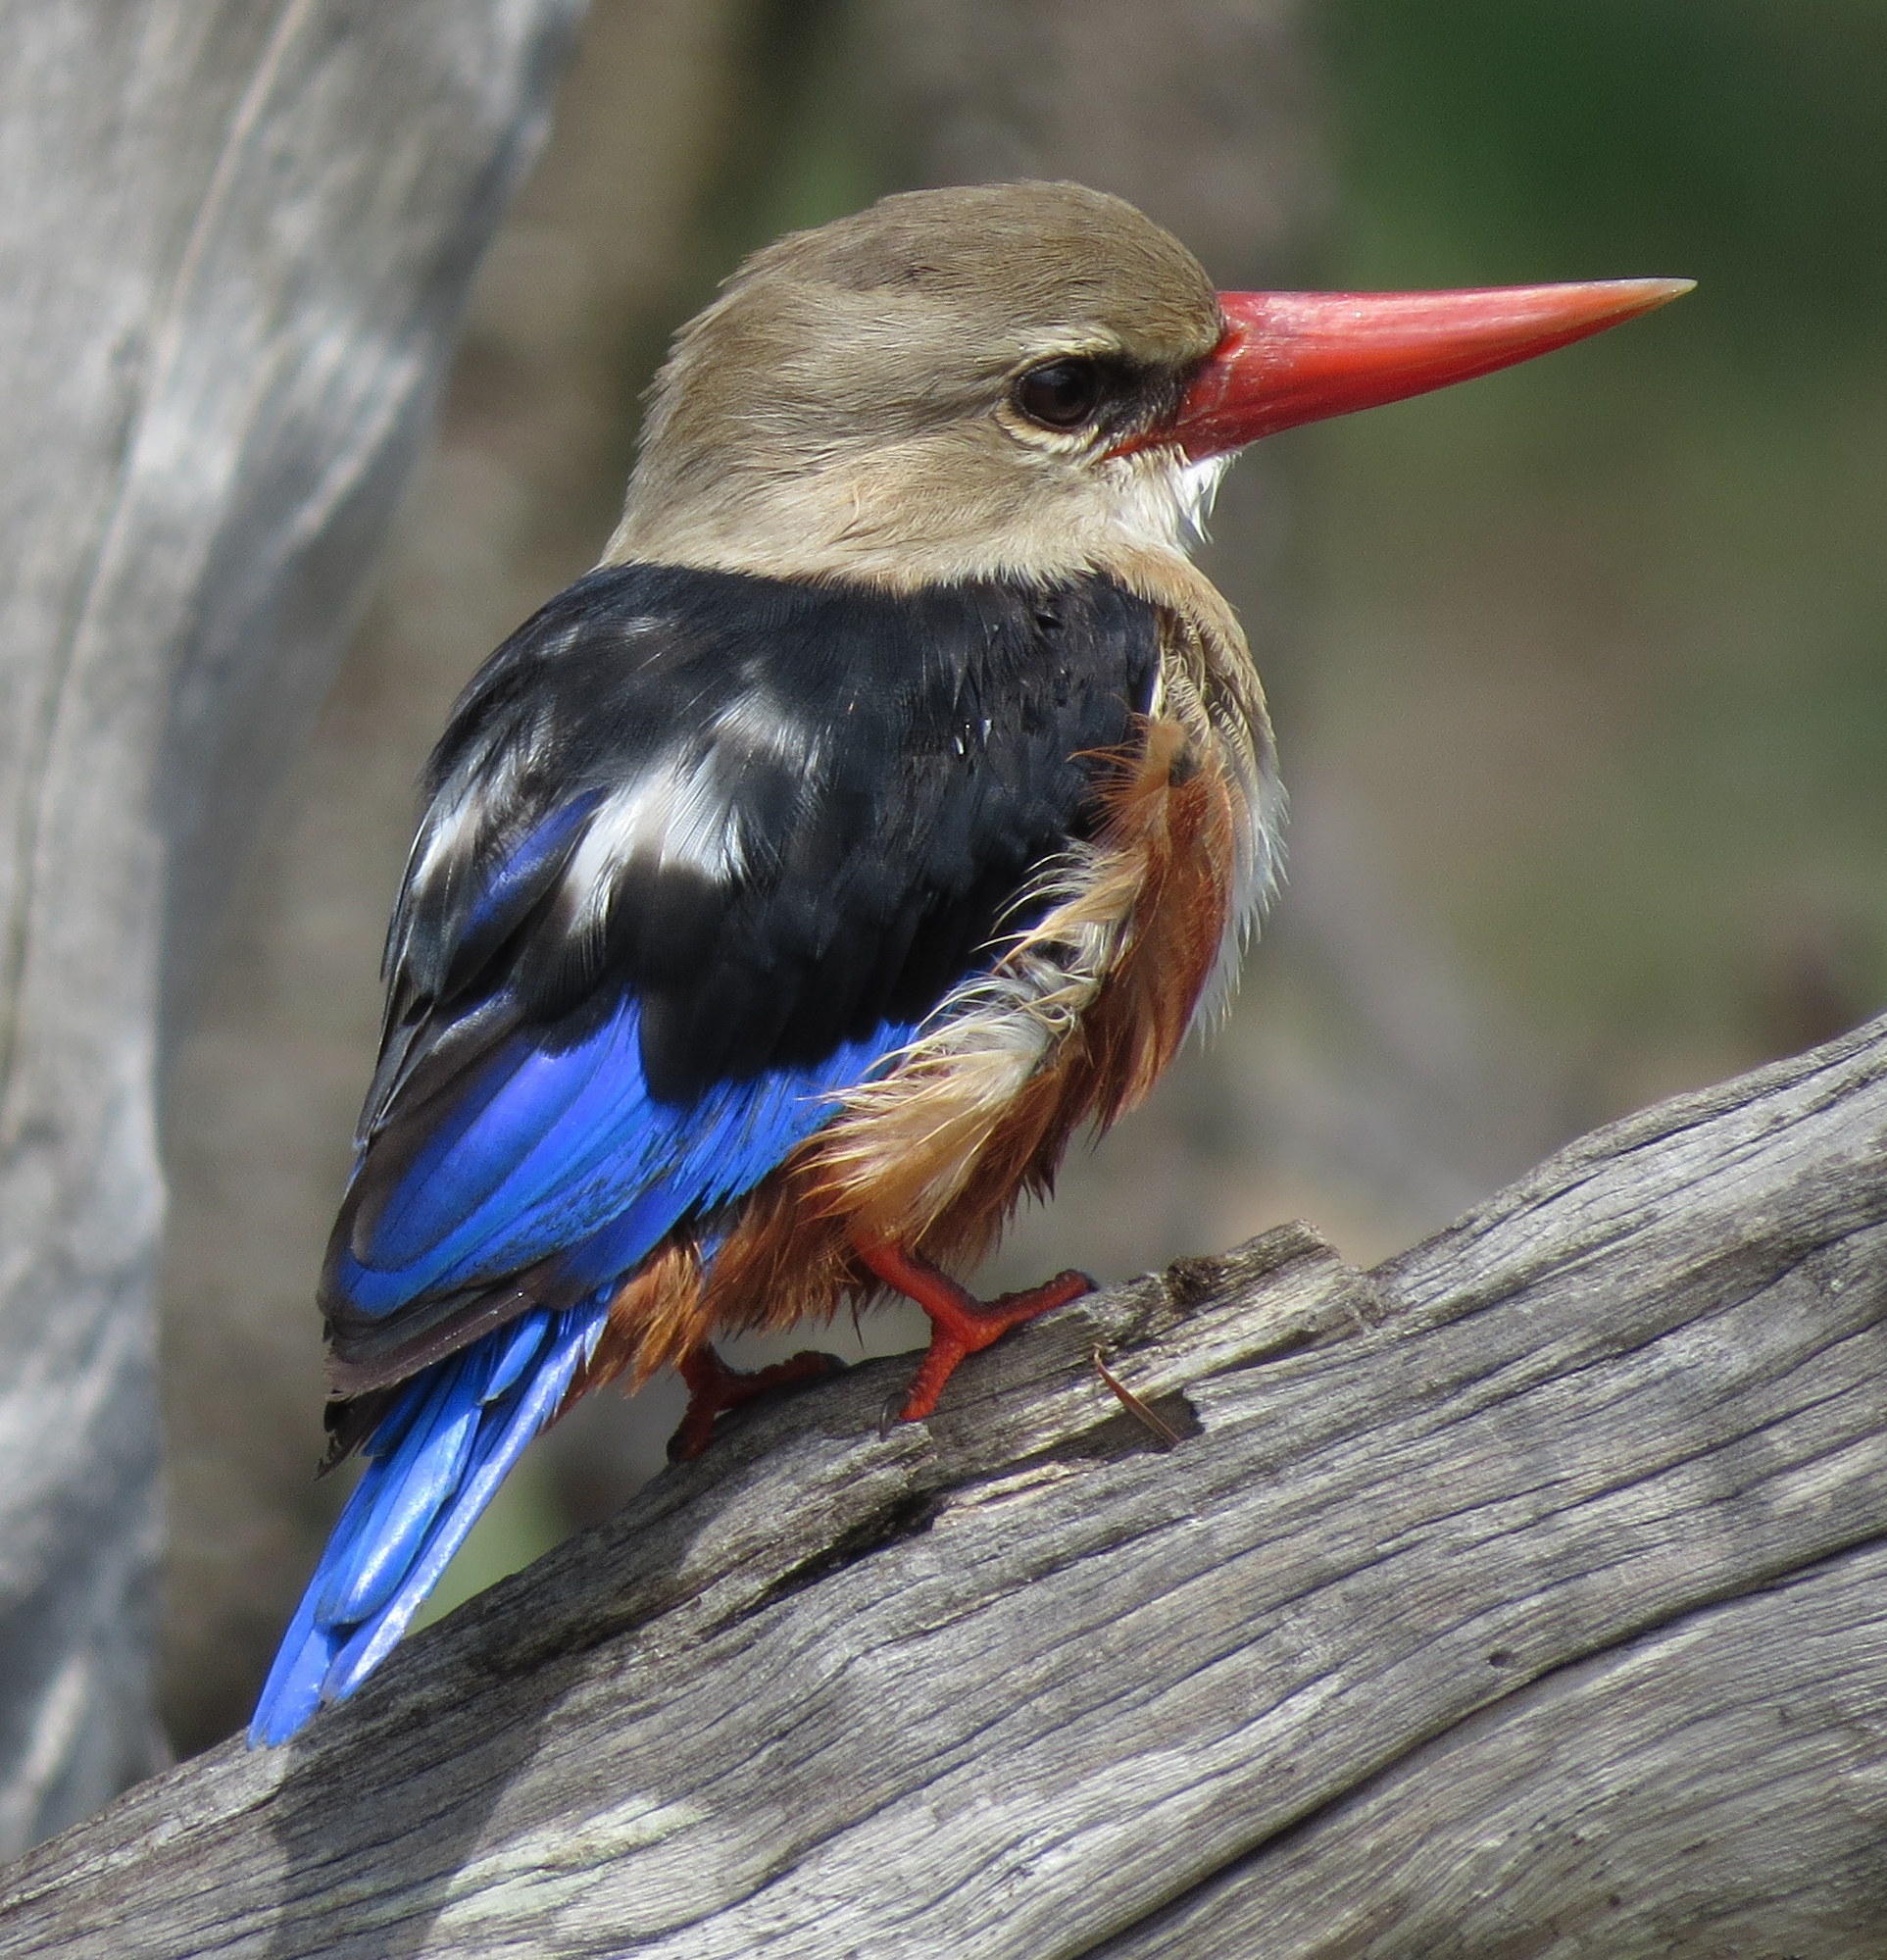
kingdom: Animalia
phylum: Chordata
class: Aves
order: Coraciiformes
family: Alcedinidae
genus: Halcyon
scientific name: Halcyon leucocephala
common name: Grey-headed kingfisher
